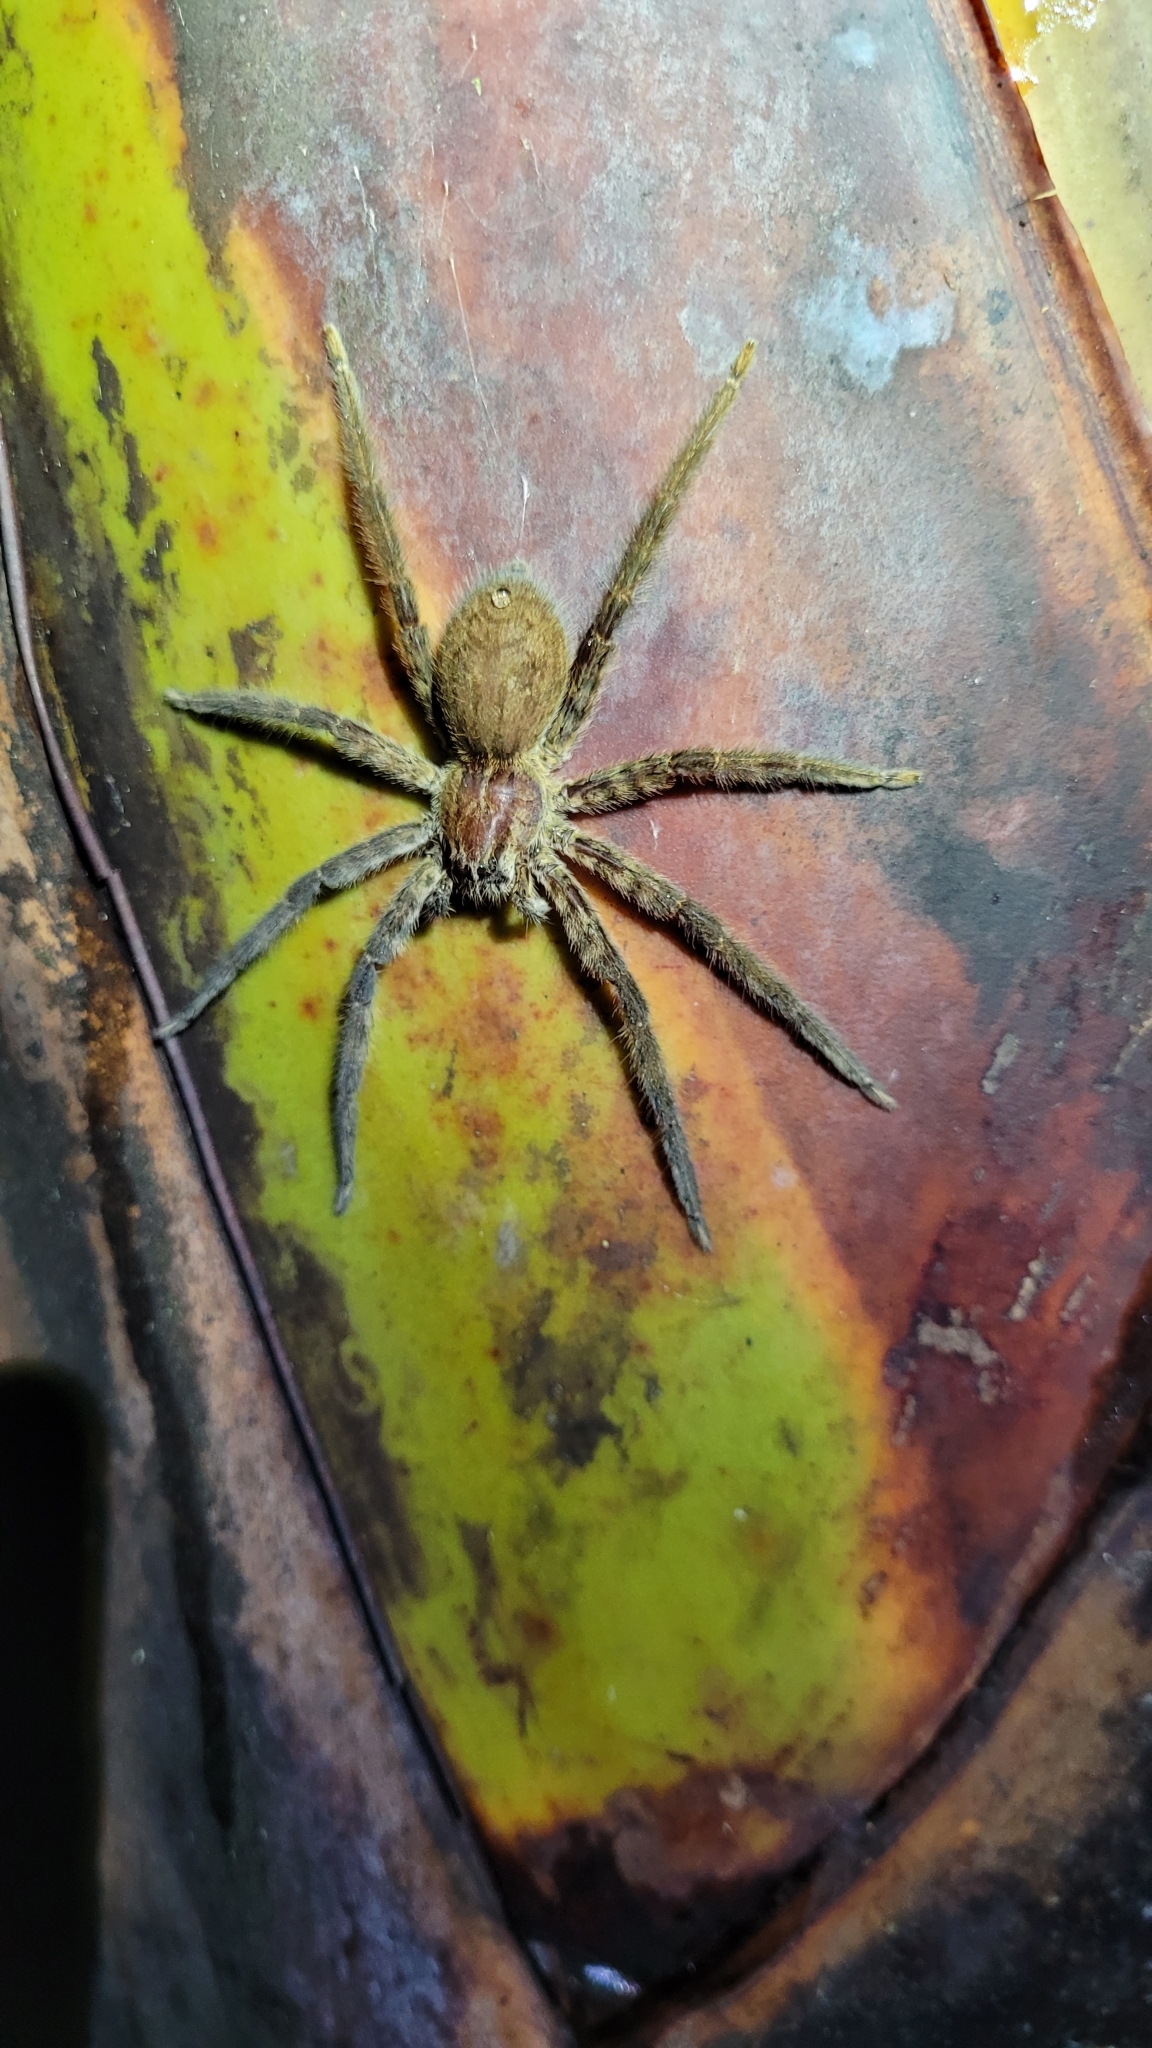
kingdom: Animalia
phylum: Arthropoda
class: Arachnida
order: Araneae
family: Trechaleidae
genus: Cupiennius
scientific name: Cupiennius salei
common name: Wandering spiders
